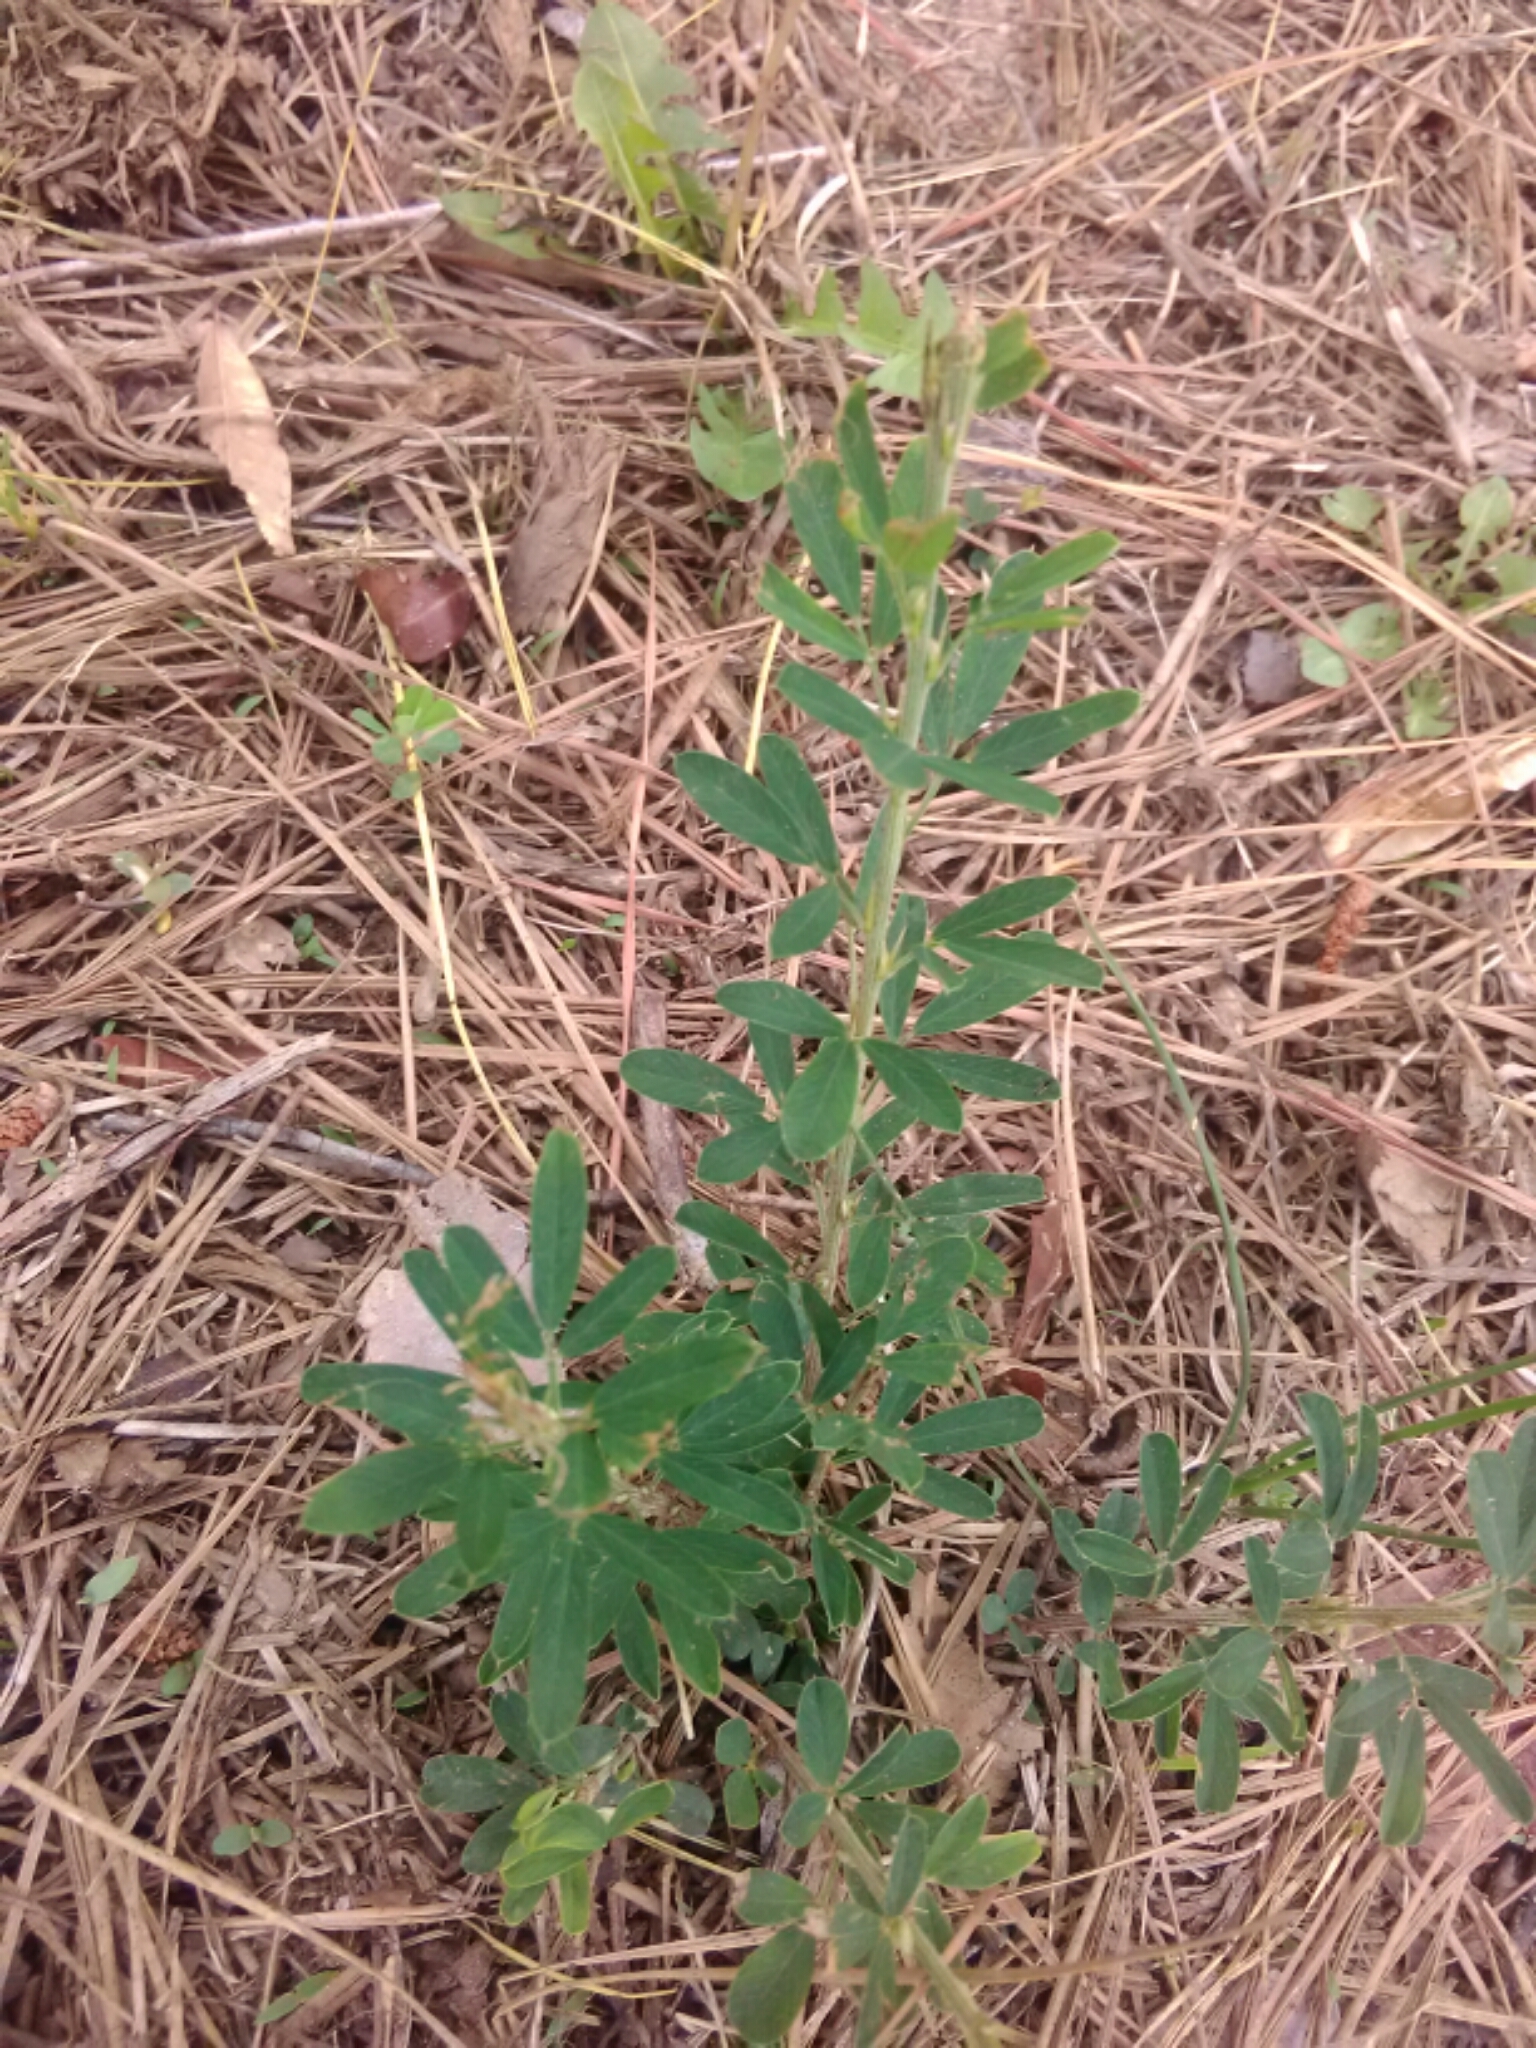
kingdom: Plantae
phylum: Tracheophyta
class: Magnoliopsida
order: Fabales
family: Fabaceae
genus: Lespedeza
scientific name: Lespedeza cuneata
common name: Chinese bush-clover
